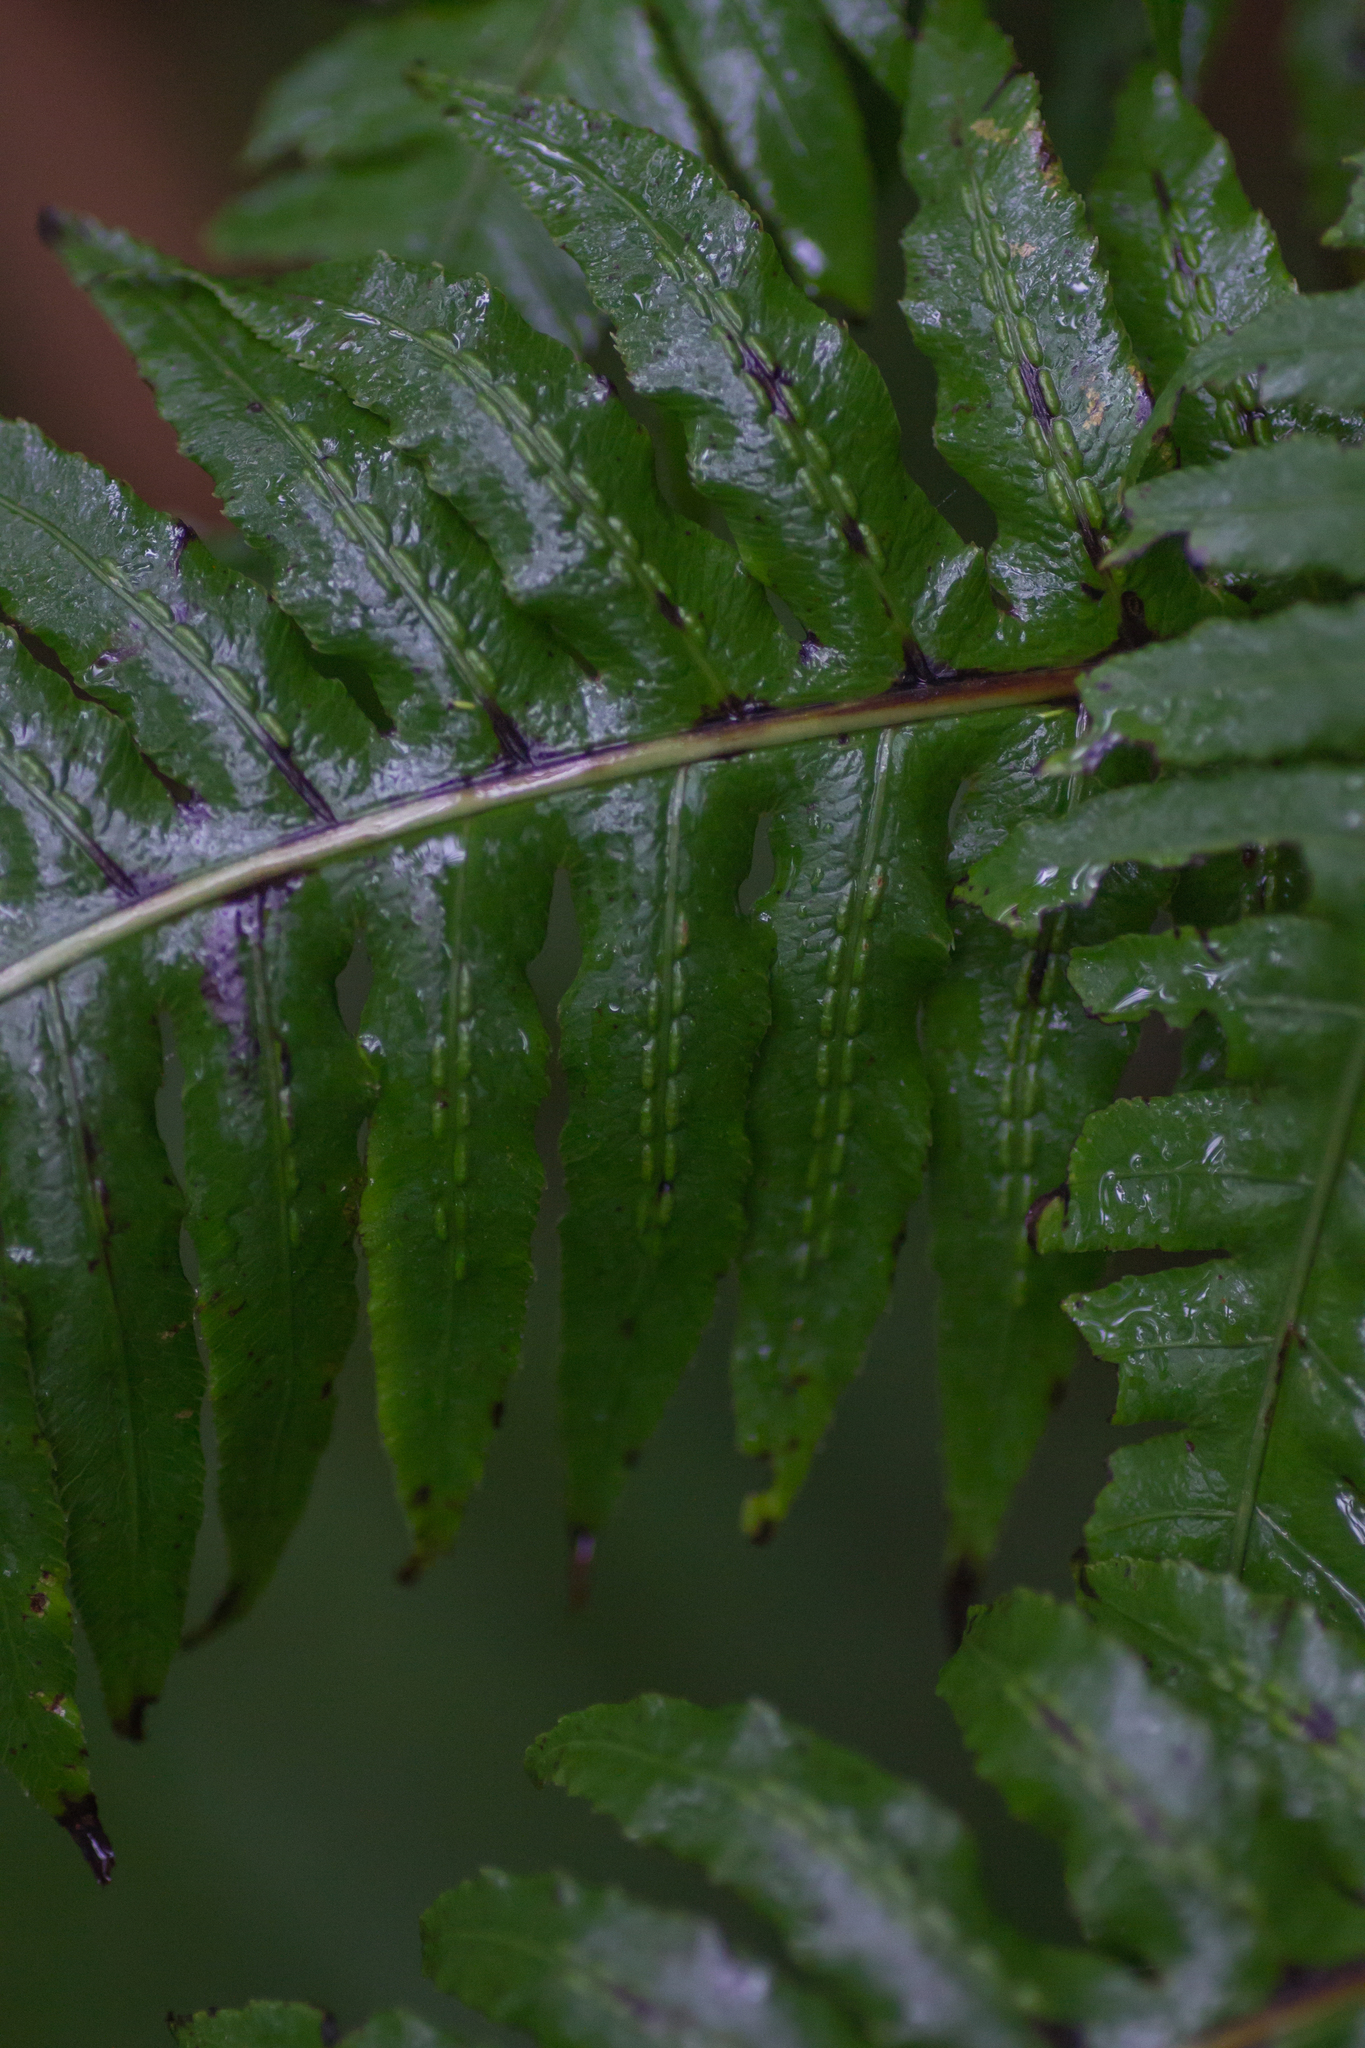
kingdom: Plantae
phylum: Tracheophyta
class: Polypodiopsida
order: Polypodiales
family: Blechnaceae
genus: Woodwardia
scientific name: Woodwardia radicans
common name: Rooting chainfern
